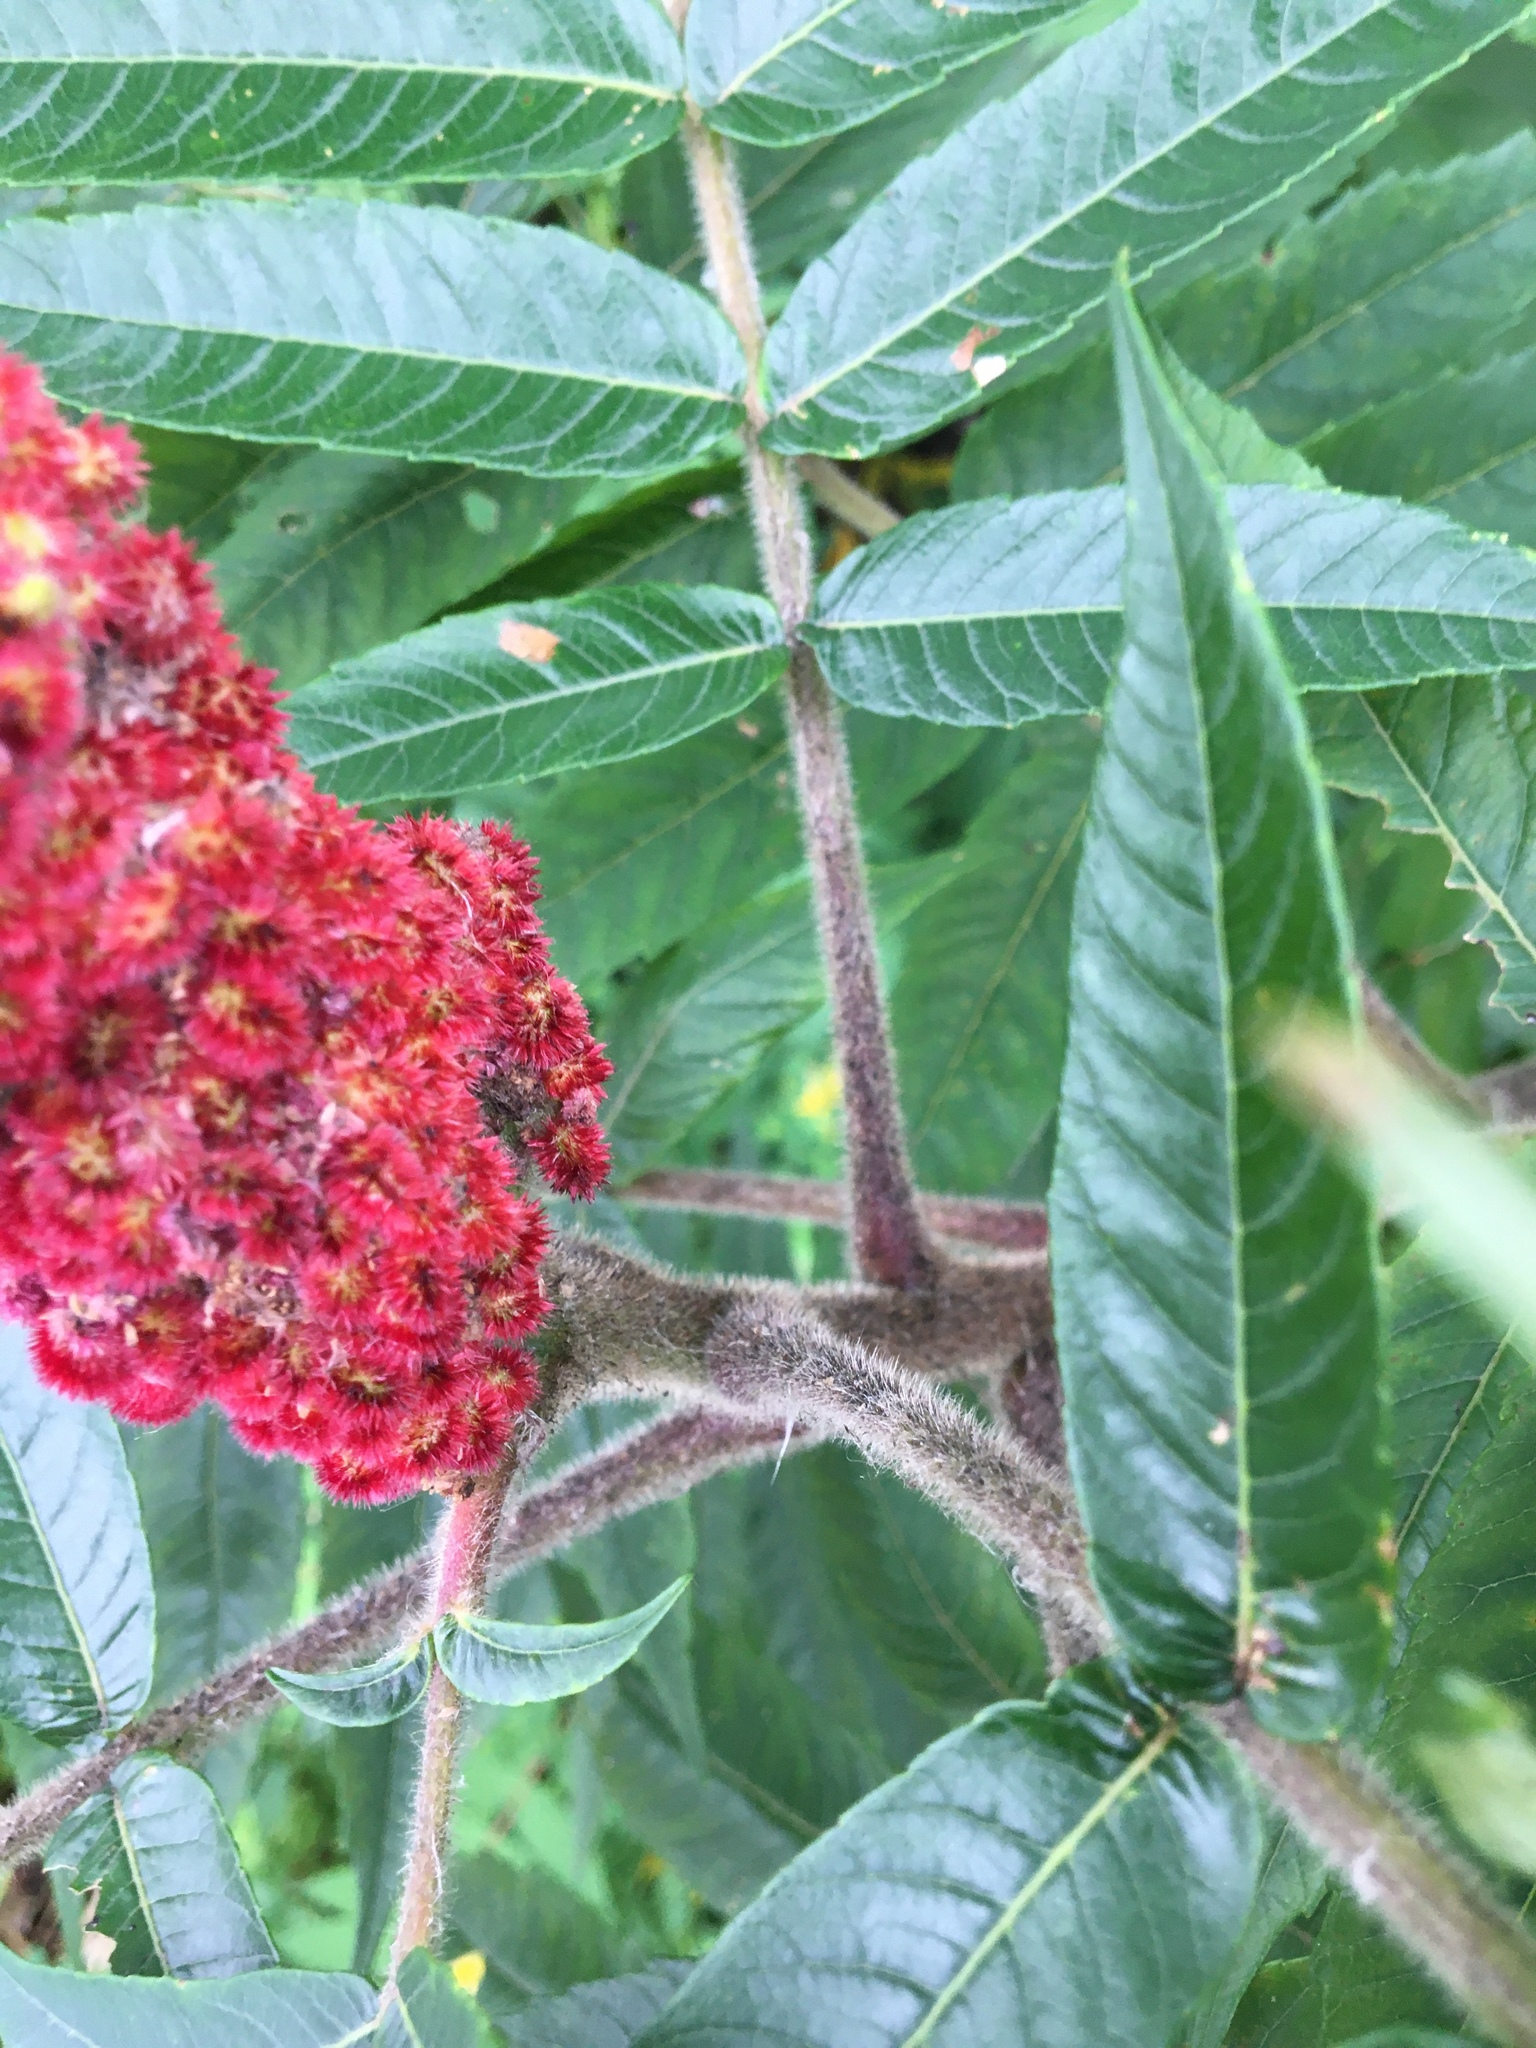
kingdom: Plantae
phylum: Tracheophyta
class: Magnoliopsida
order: Sapindales
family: Anacardiaceae
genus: Rhus
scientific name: Rhus typhina
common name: Staghorn sumac
